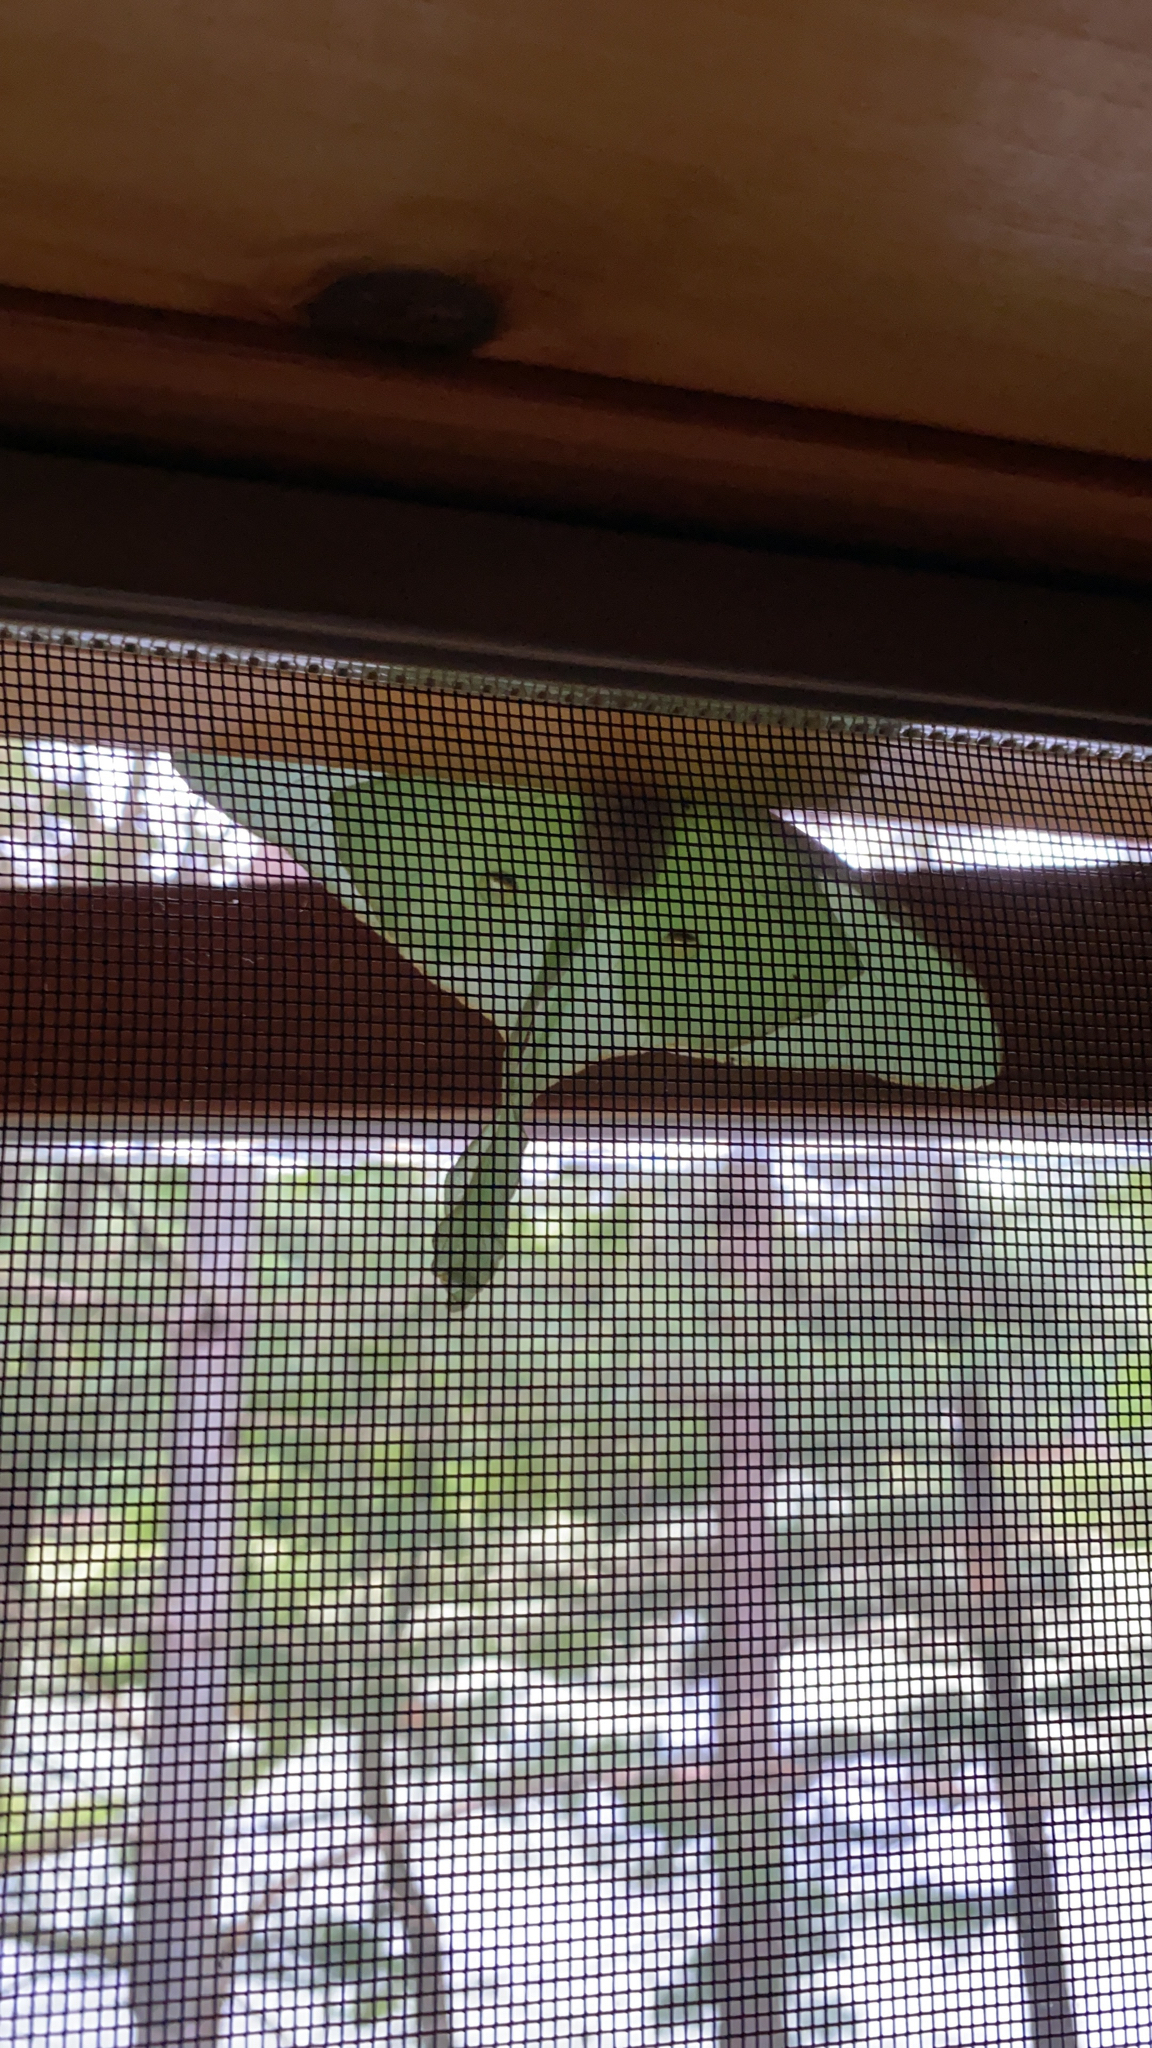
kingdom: Animalia
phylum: Arthropoda
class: Insecta
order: Lepidoptera
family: Saturniidae
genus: Actias
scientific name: Actias luna
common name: Luna moth
